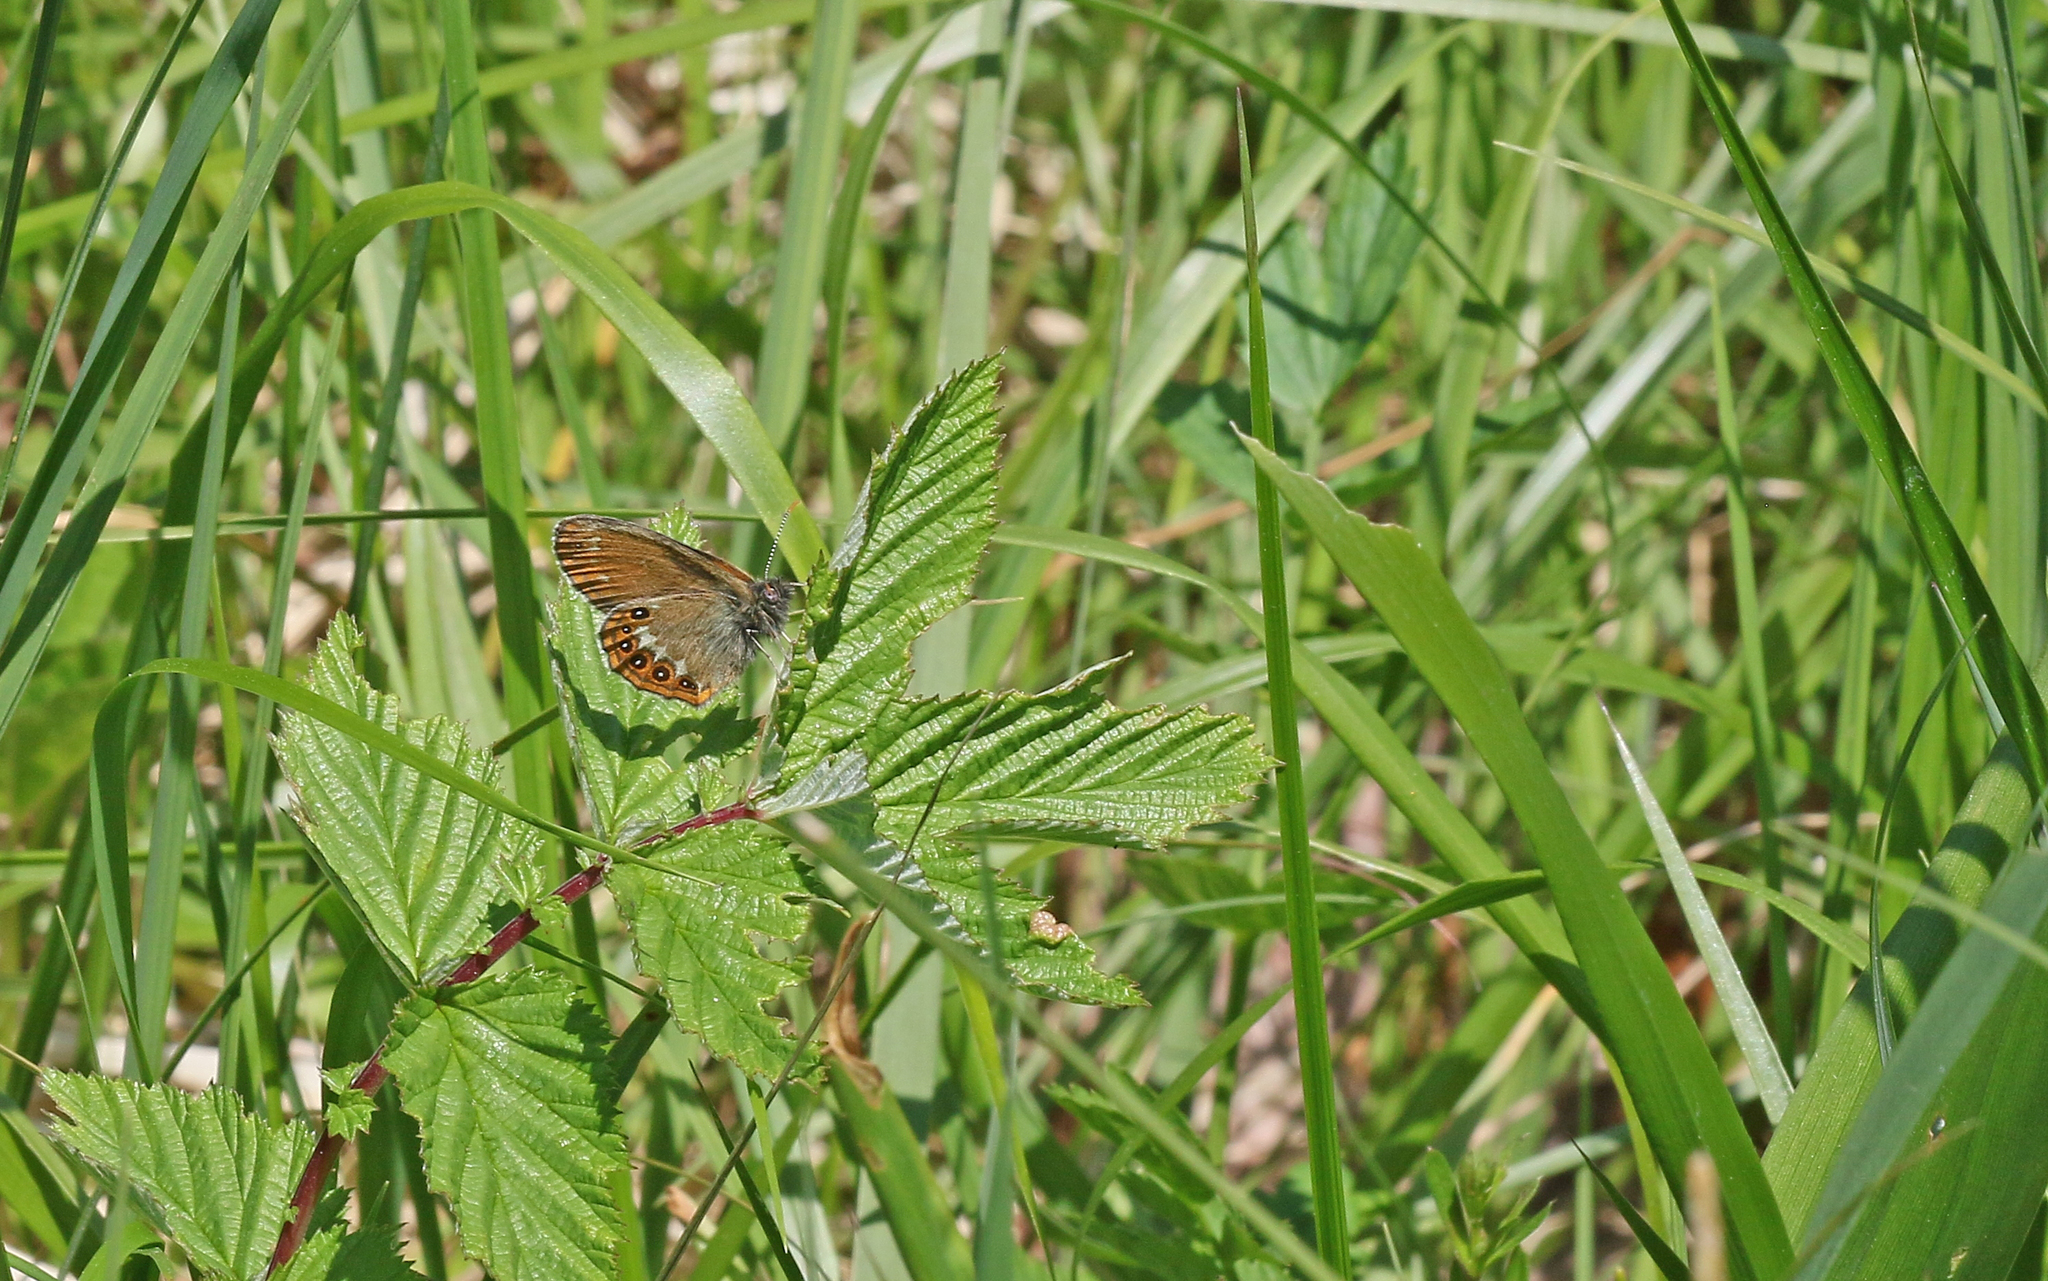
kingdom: Animalia
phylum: Arthropoda
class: Insecta
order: Lepidoptera
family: Nymphalidae
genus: Coenonympha
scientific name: Coenonympha hero
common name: Scarce heath
